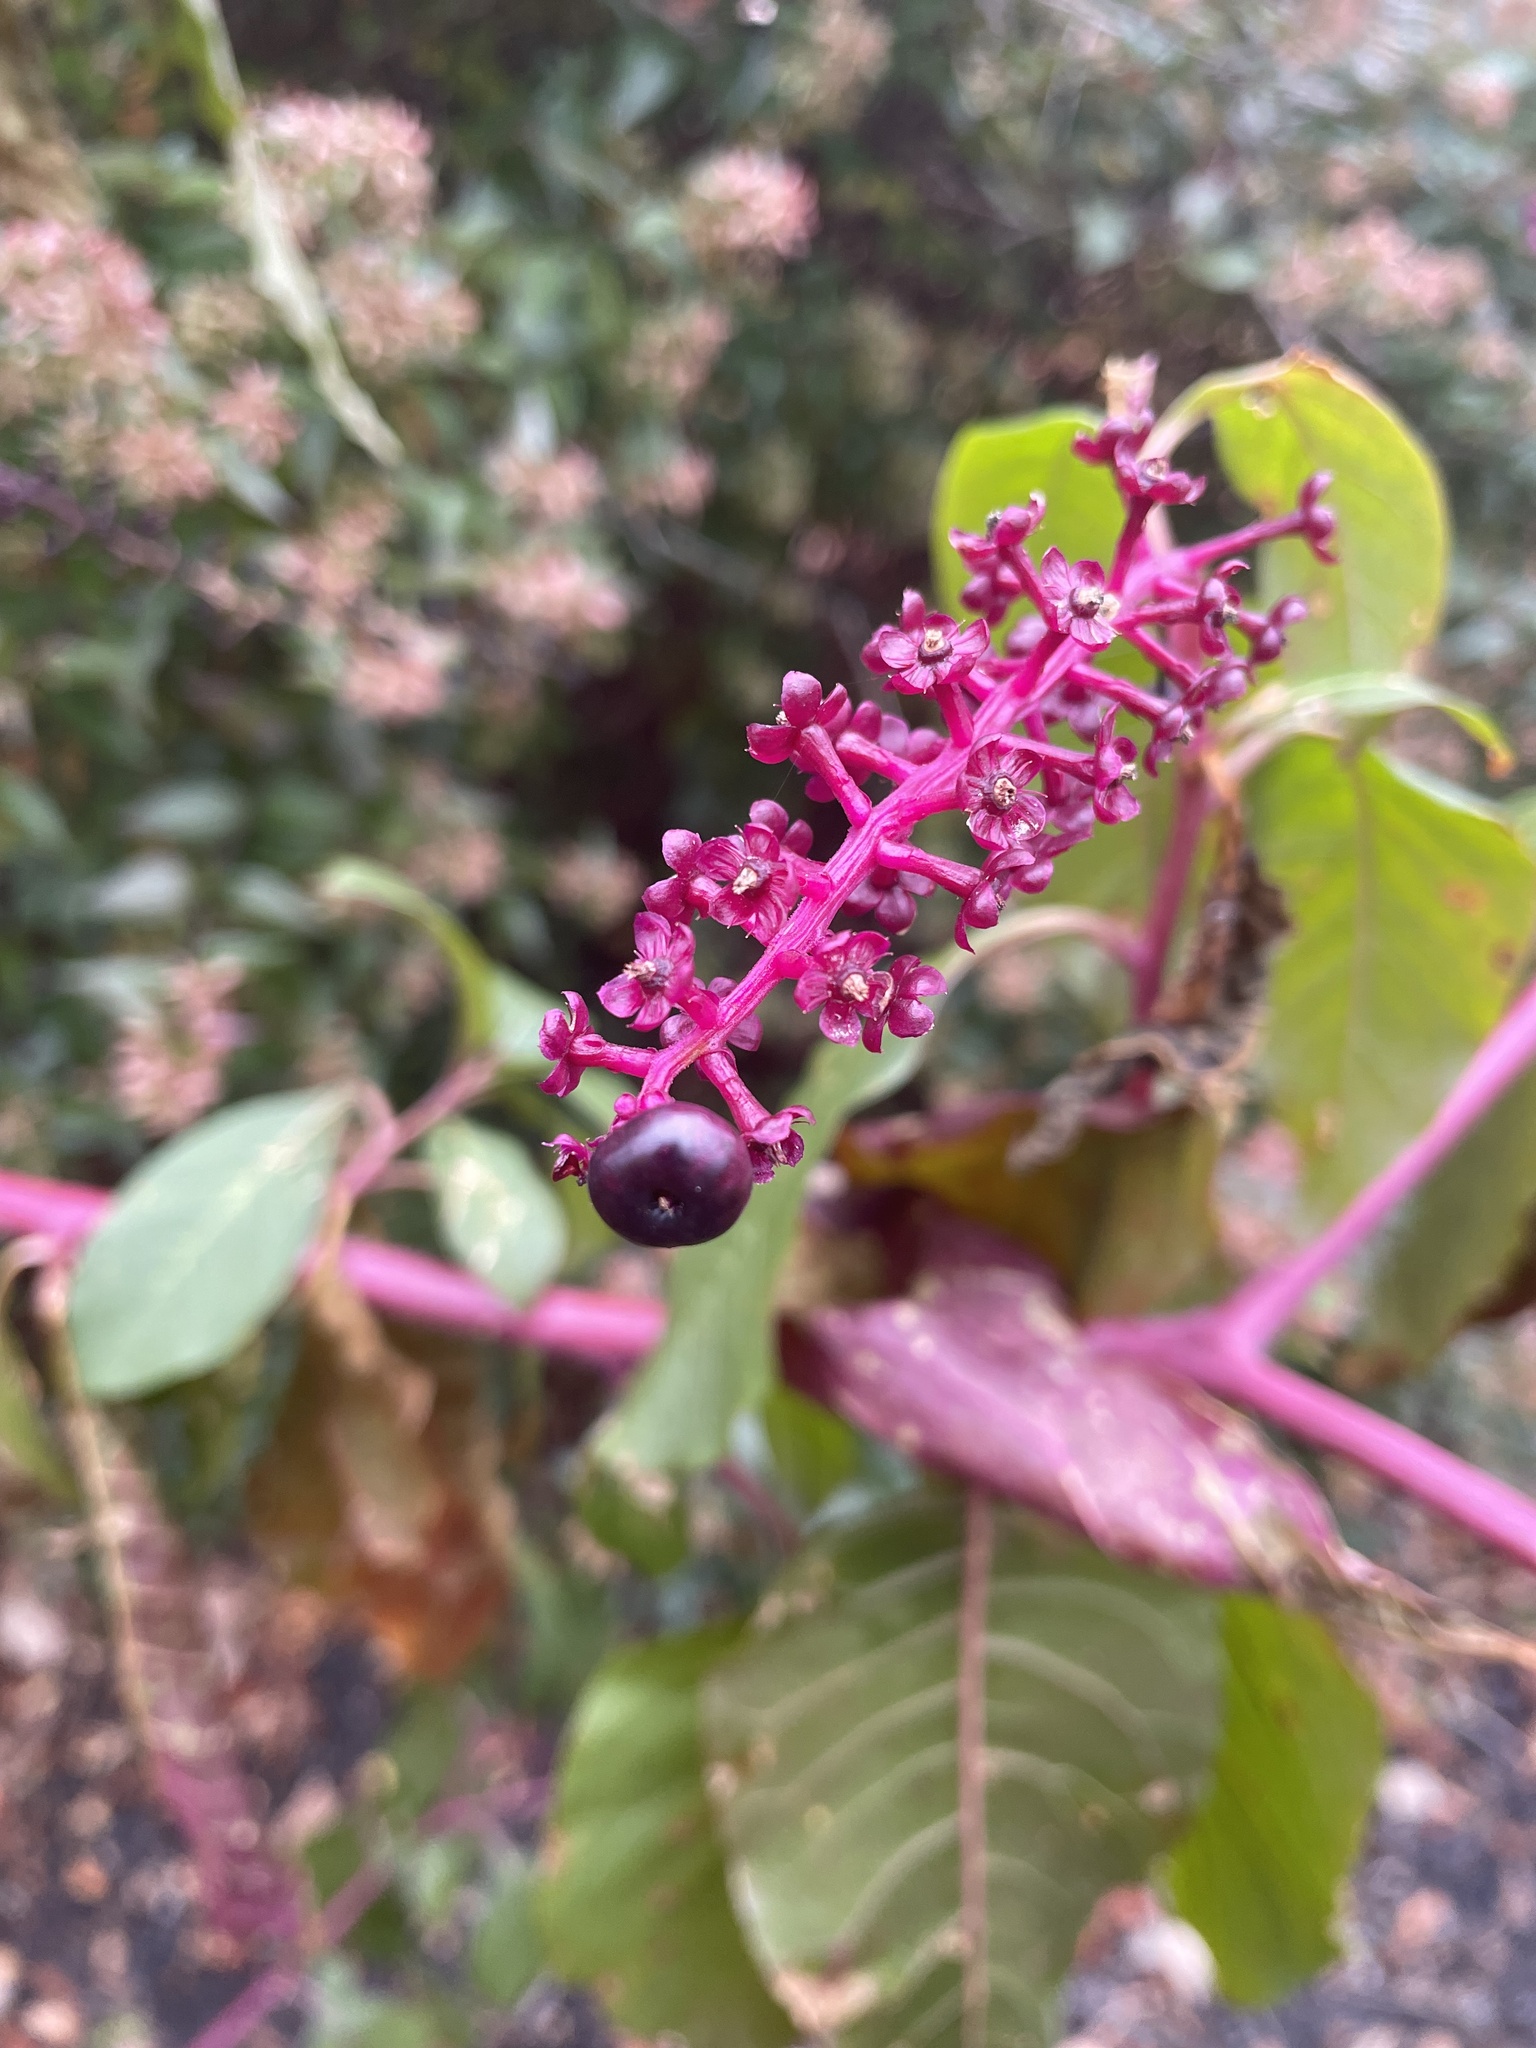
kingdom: Plantae
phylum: Tracheophyta
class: Magnoliopsida
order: Caryophyllales
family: Phytolaccaceae
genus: Phytolacca
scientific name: Phytolacca americana
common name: American pokeweed
